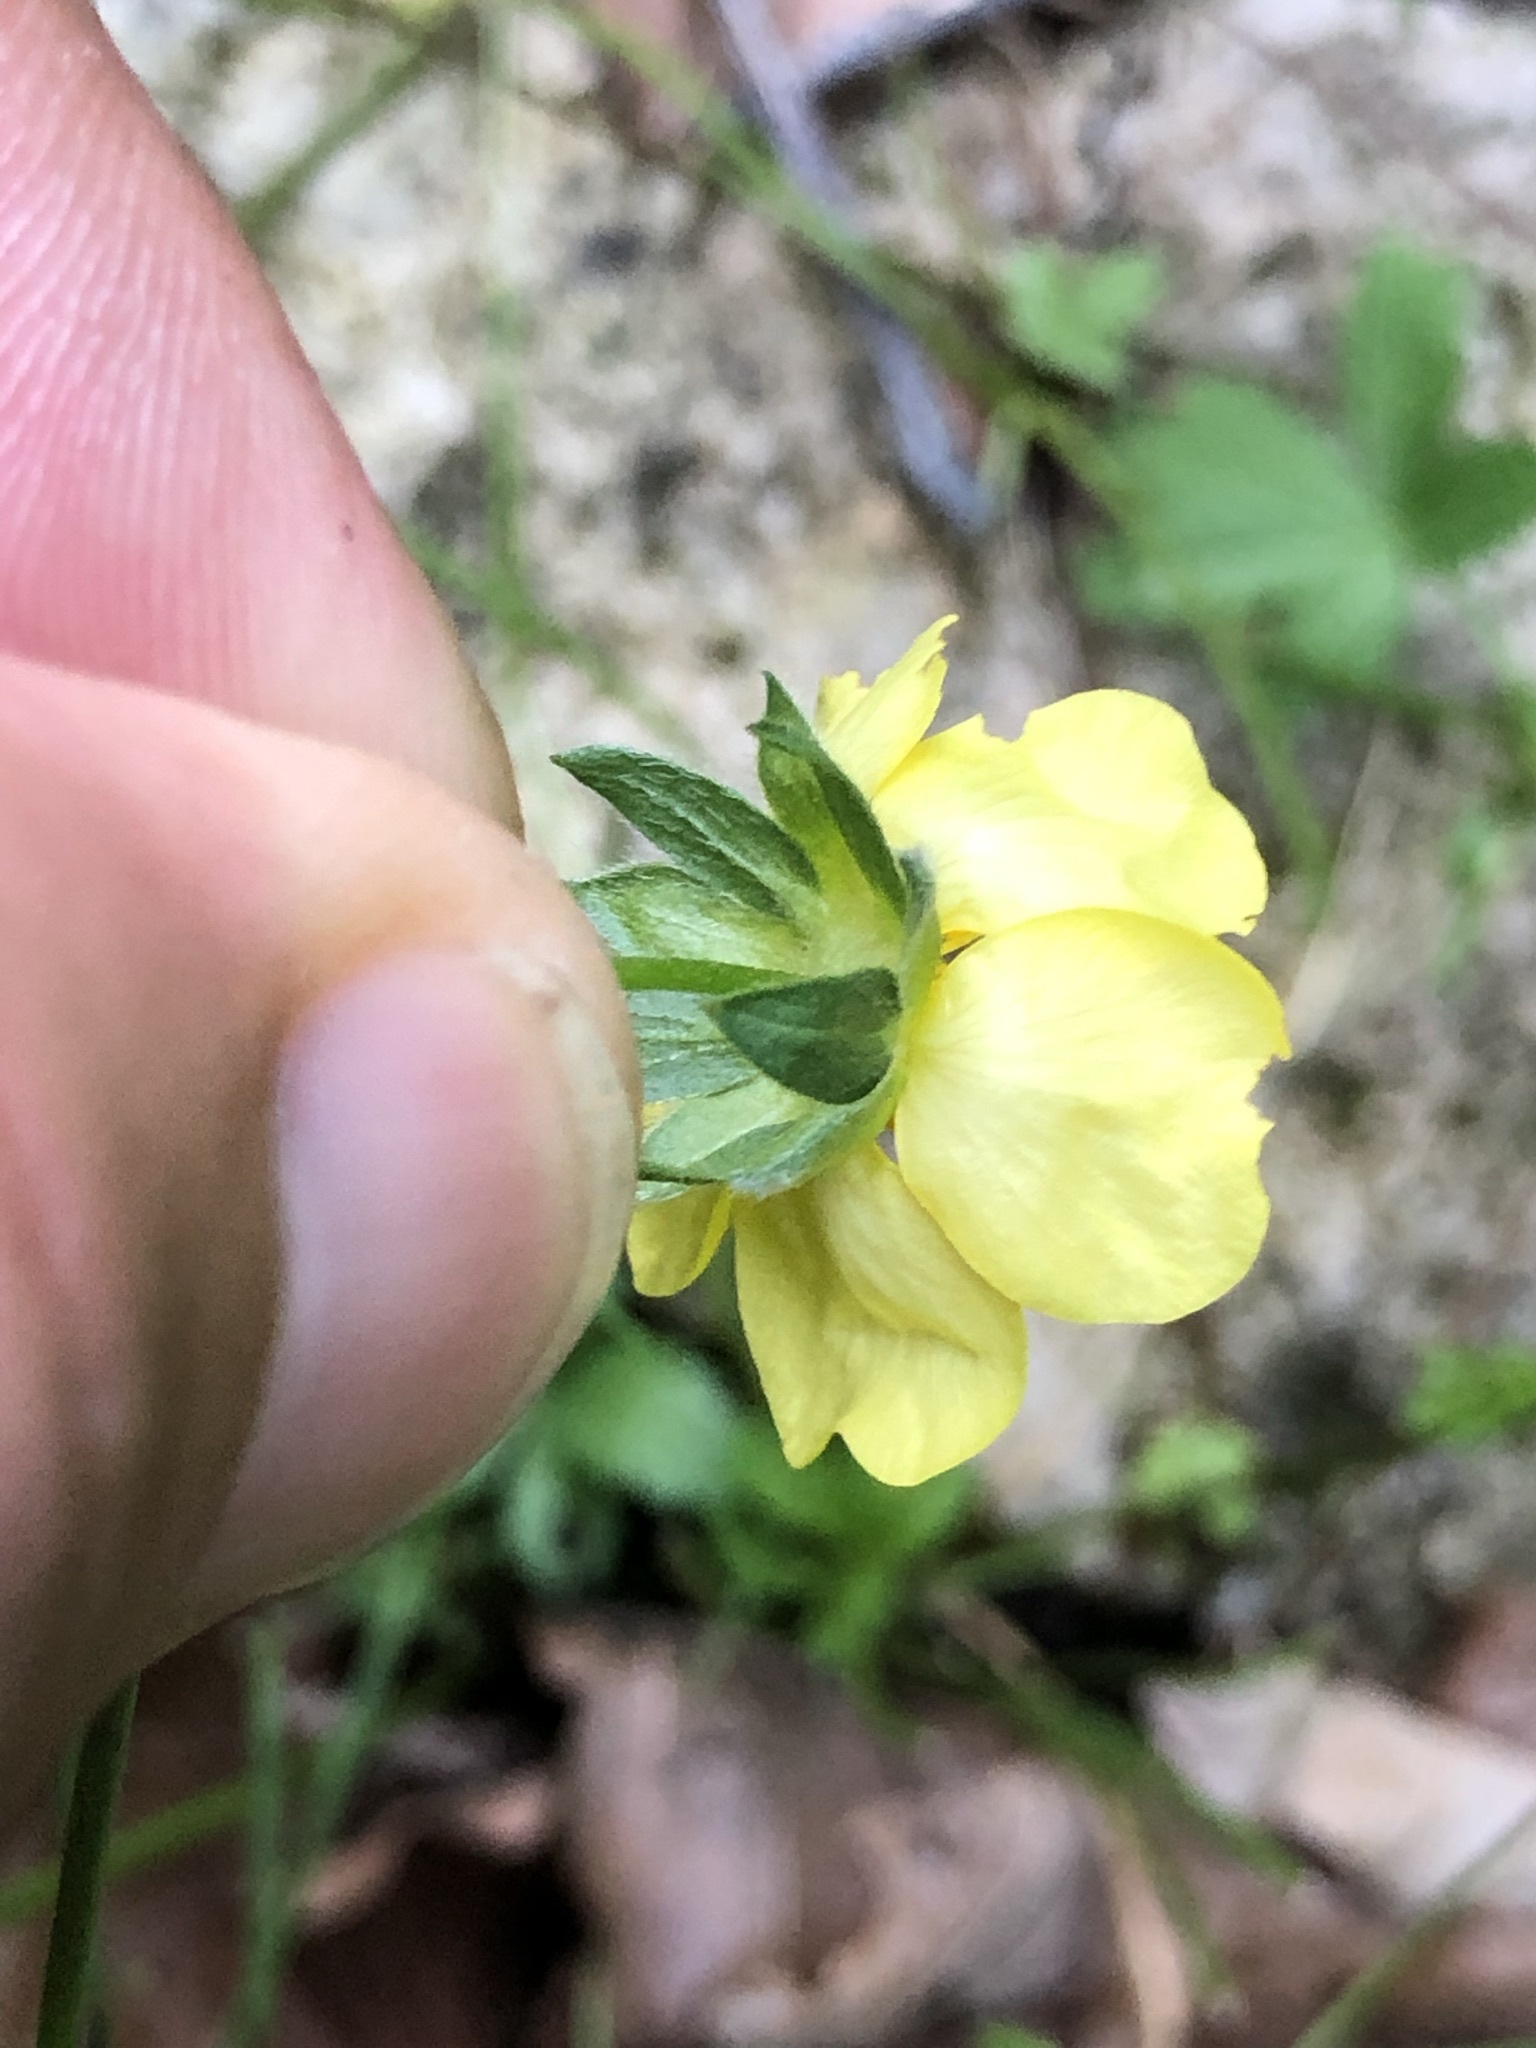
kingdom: Plantae
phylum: Tracheophyta
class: Magnoliopsida
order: Rosales
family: Rosaceae
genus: Potentilla
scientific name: Potentilla reptans
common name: Creeping cinquefoil
